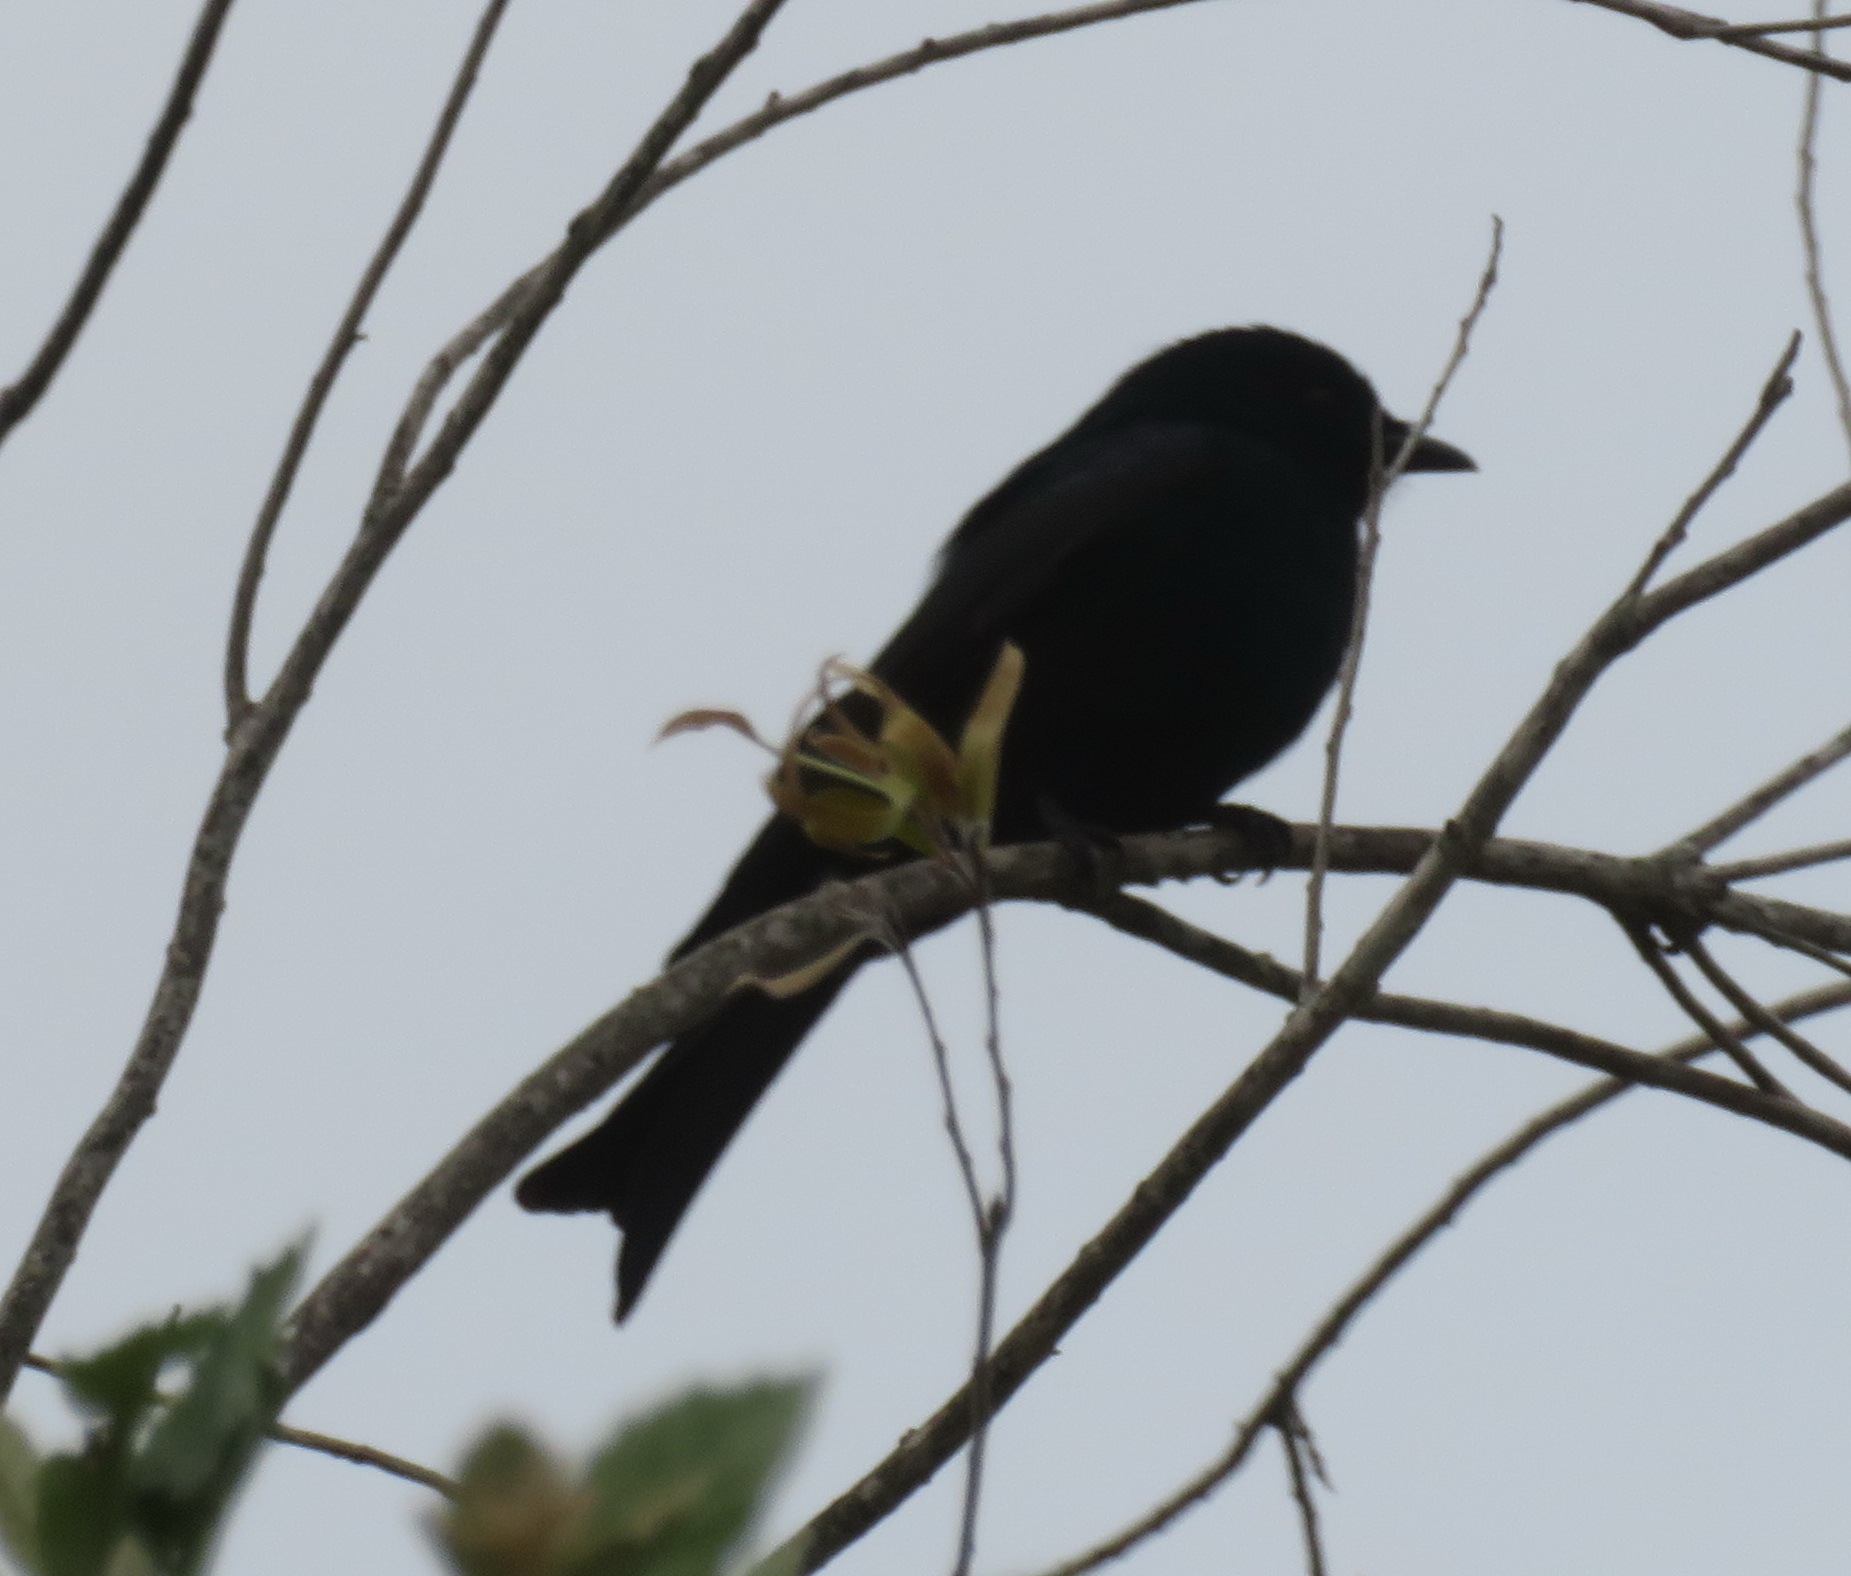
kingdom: Animalia
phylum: Chordata
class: Aves
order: Passeriformes
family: Dicruridae
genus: Dicrurus
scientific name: Dicrurus adsimilis
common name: Fork-tailed drongo
